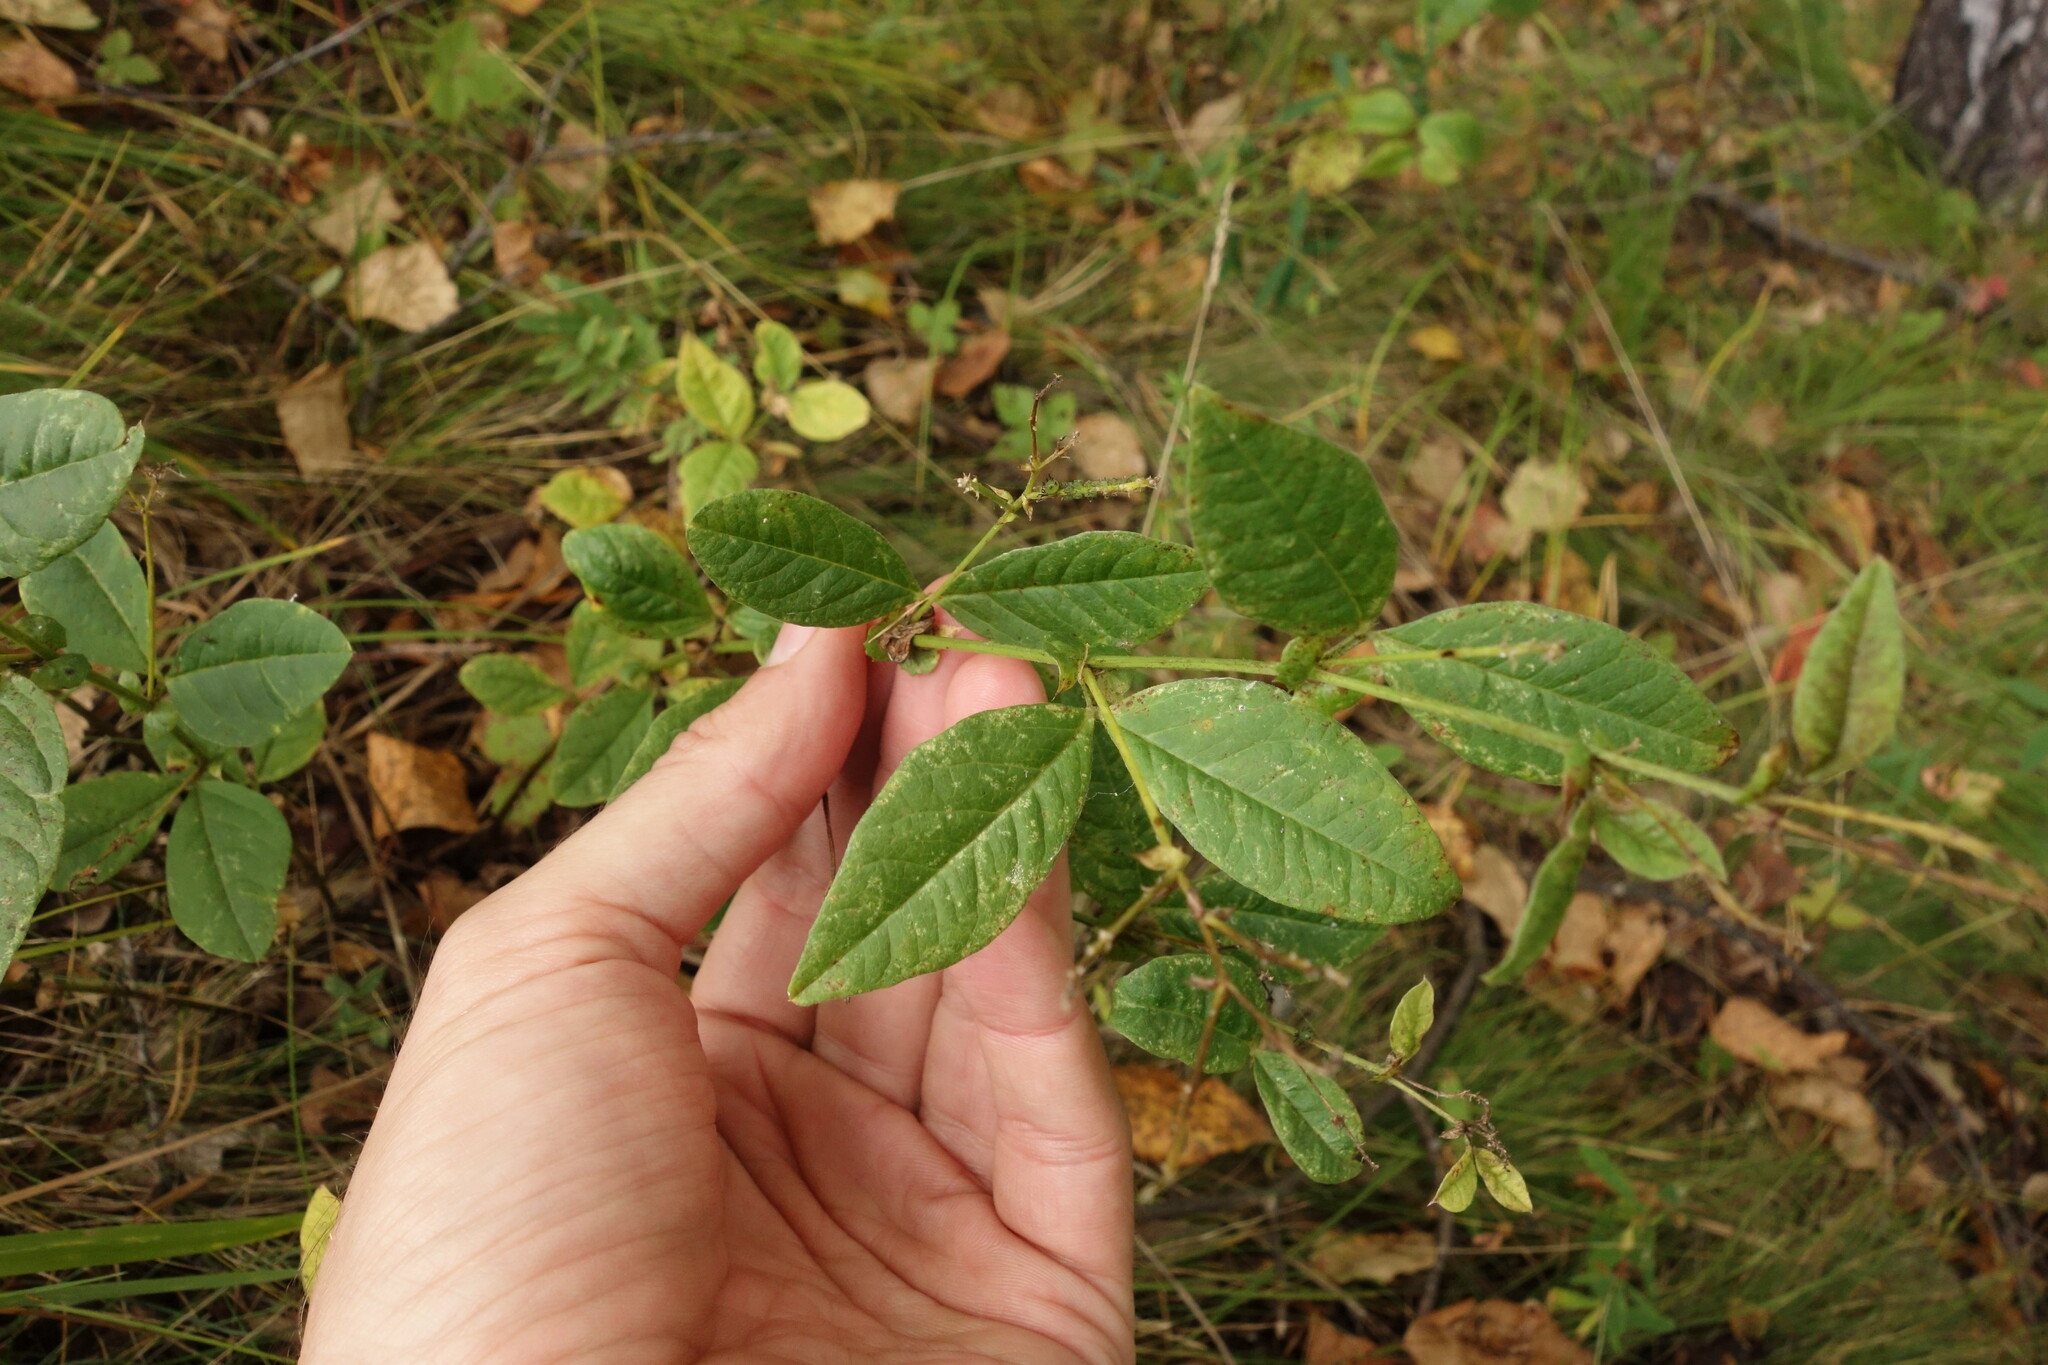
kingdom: Plantae
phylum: Tracheophyta
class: Magnoliopsida
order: Fabales
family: Fabaceae
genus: Vicia
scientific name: Vicia unijuga
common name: Two-leaf vetch
